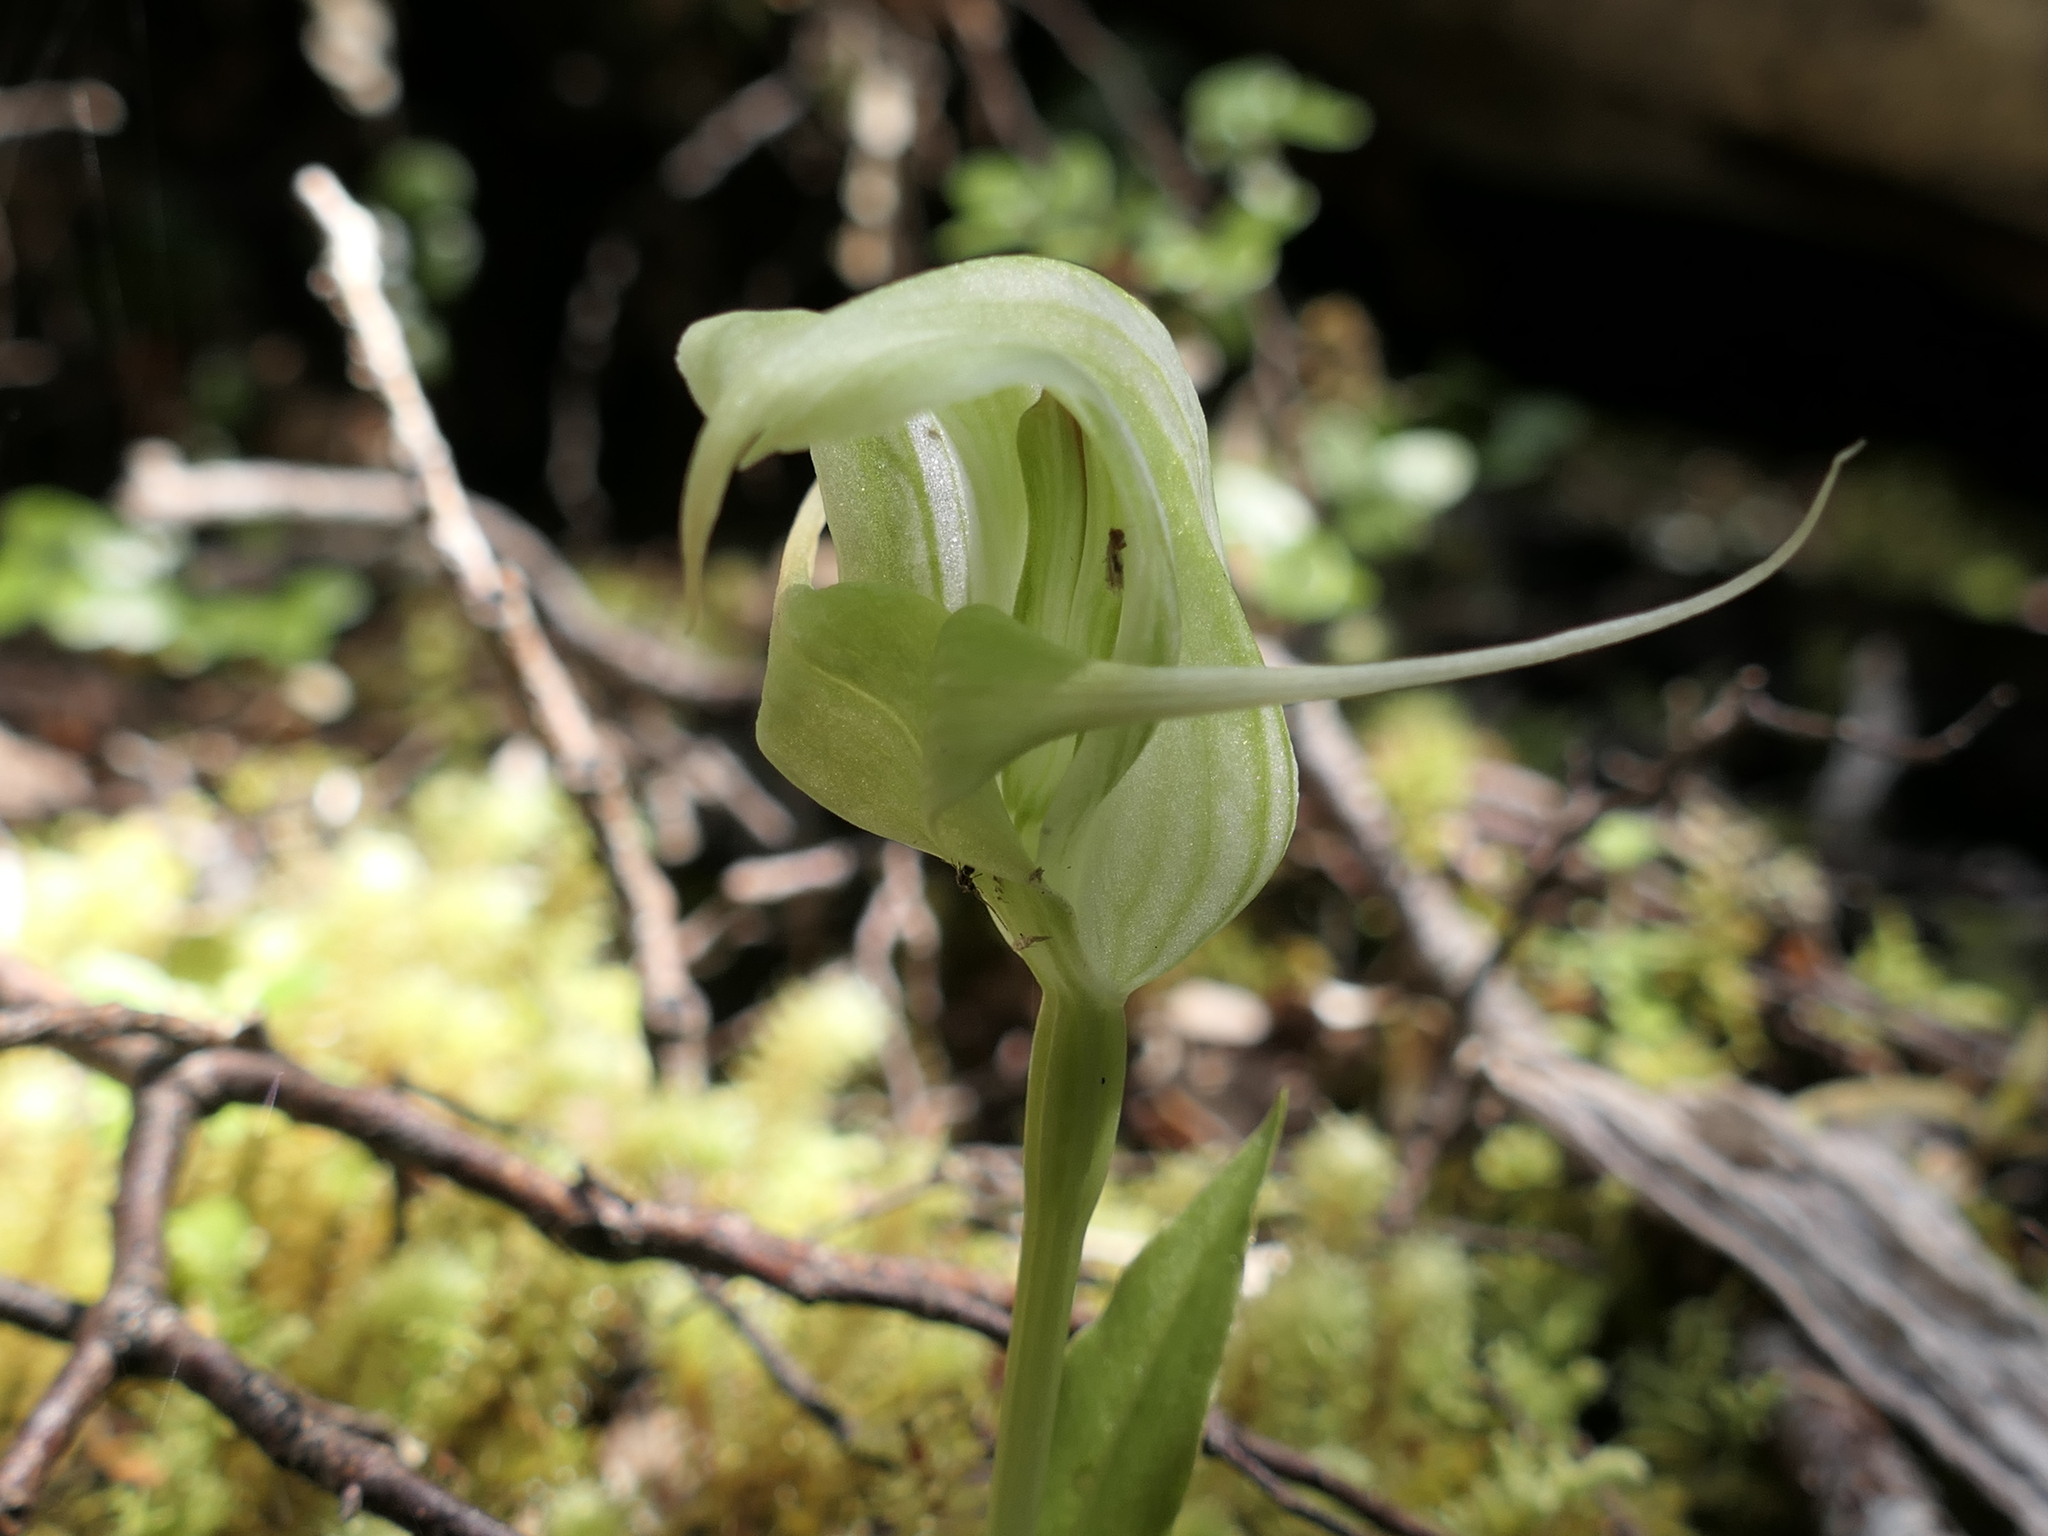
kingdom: Plantae
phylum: Tracheophyta
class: Liliopsida
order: Asparagales
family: Orchidaceae
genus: Pterostylis
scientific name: Pterostylis patens
